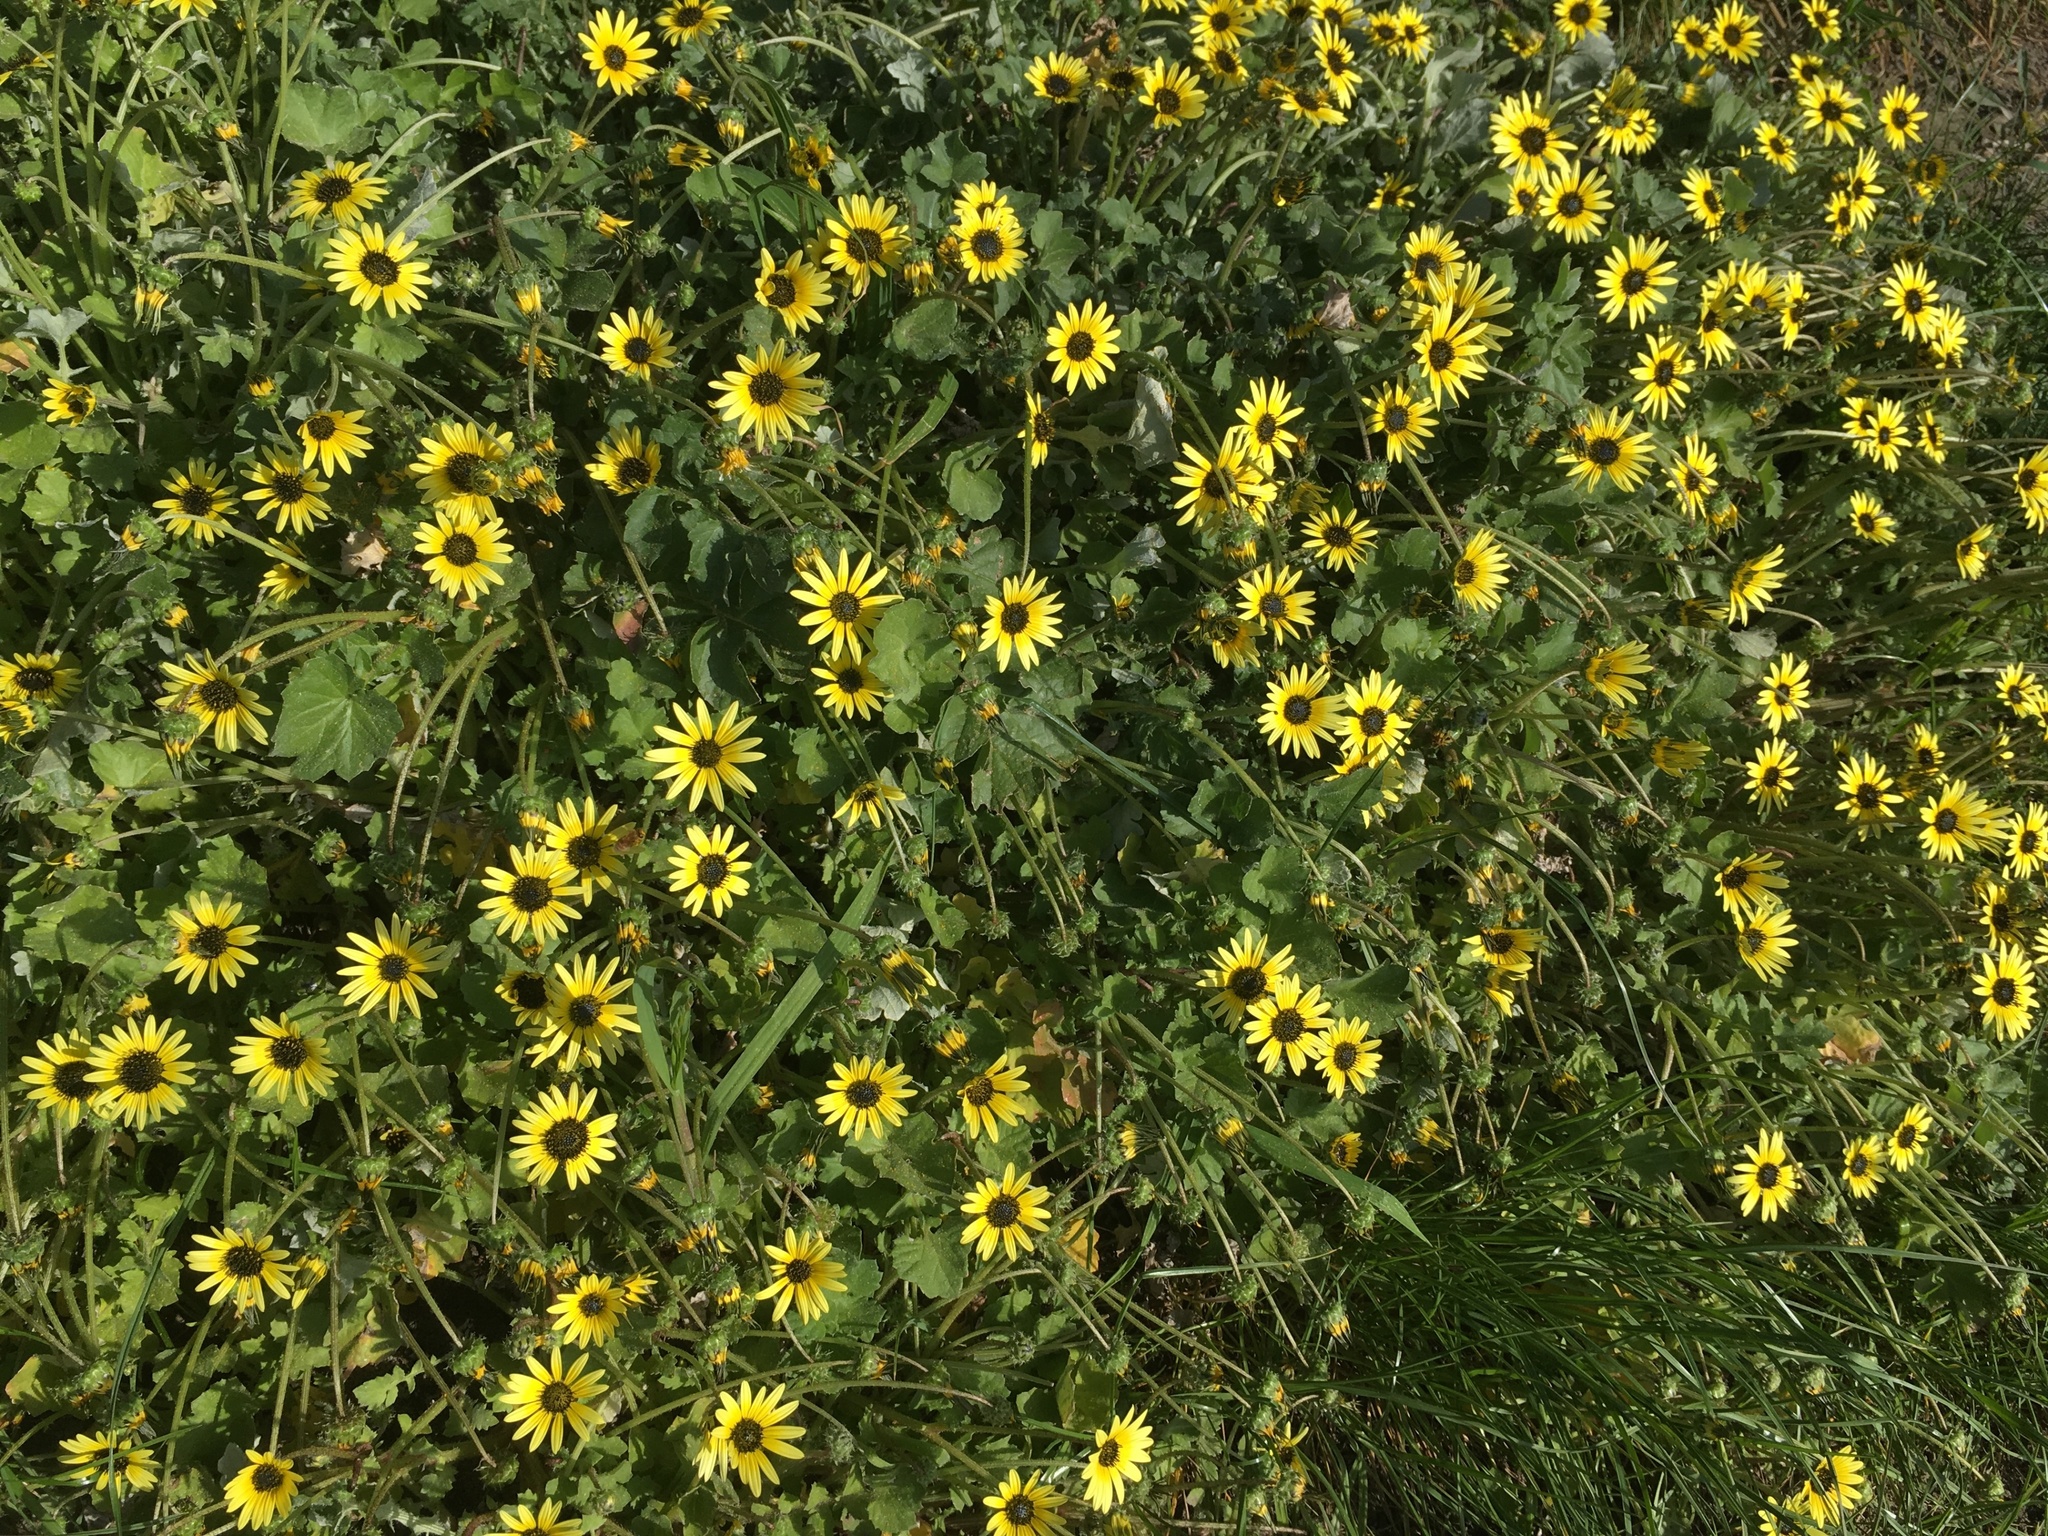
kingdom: Plantae
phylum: Tracheophyta
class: Magnoliopsida
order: Asterales
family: Asteraceae
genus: Arctotheca
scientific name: Arctotheca calendula
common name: Capeweed
